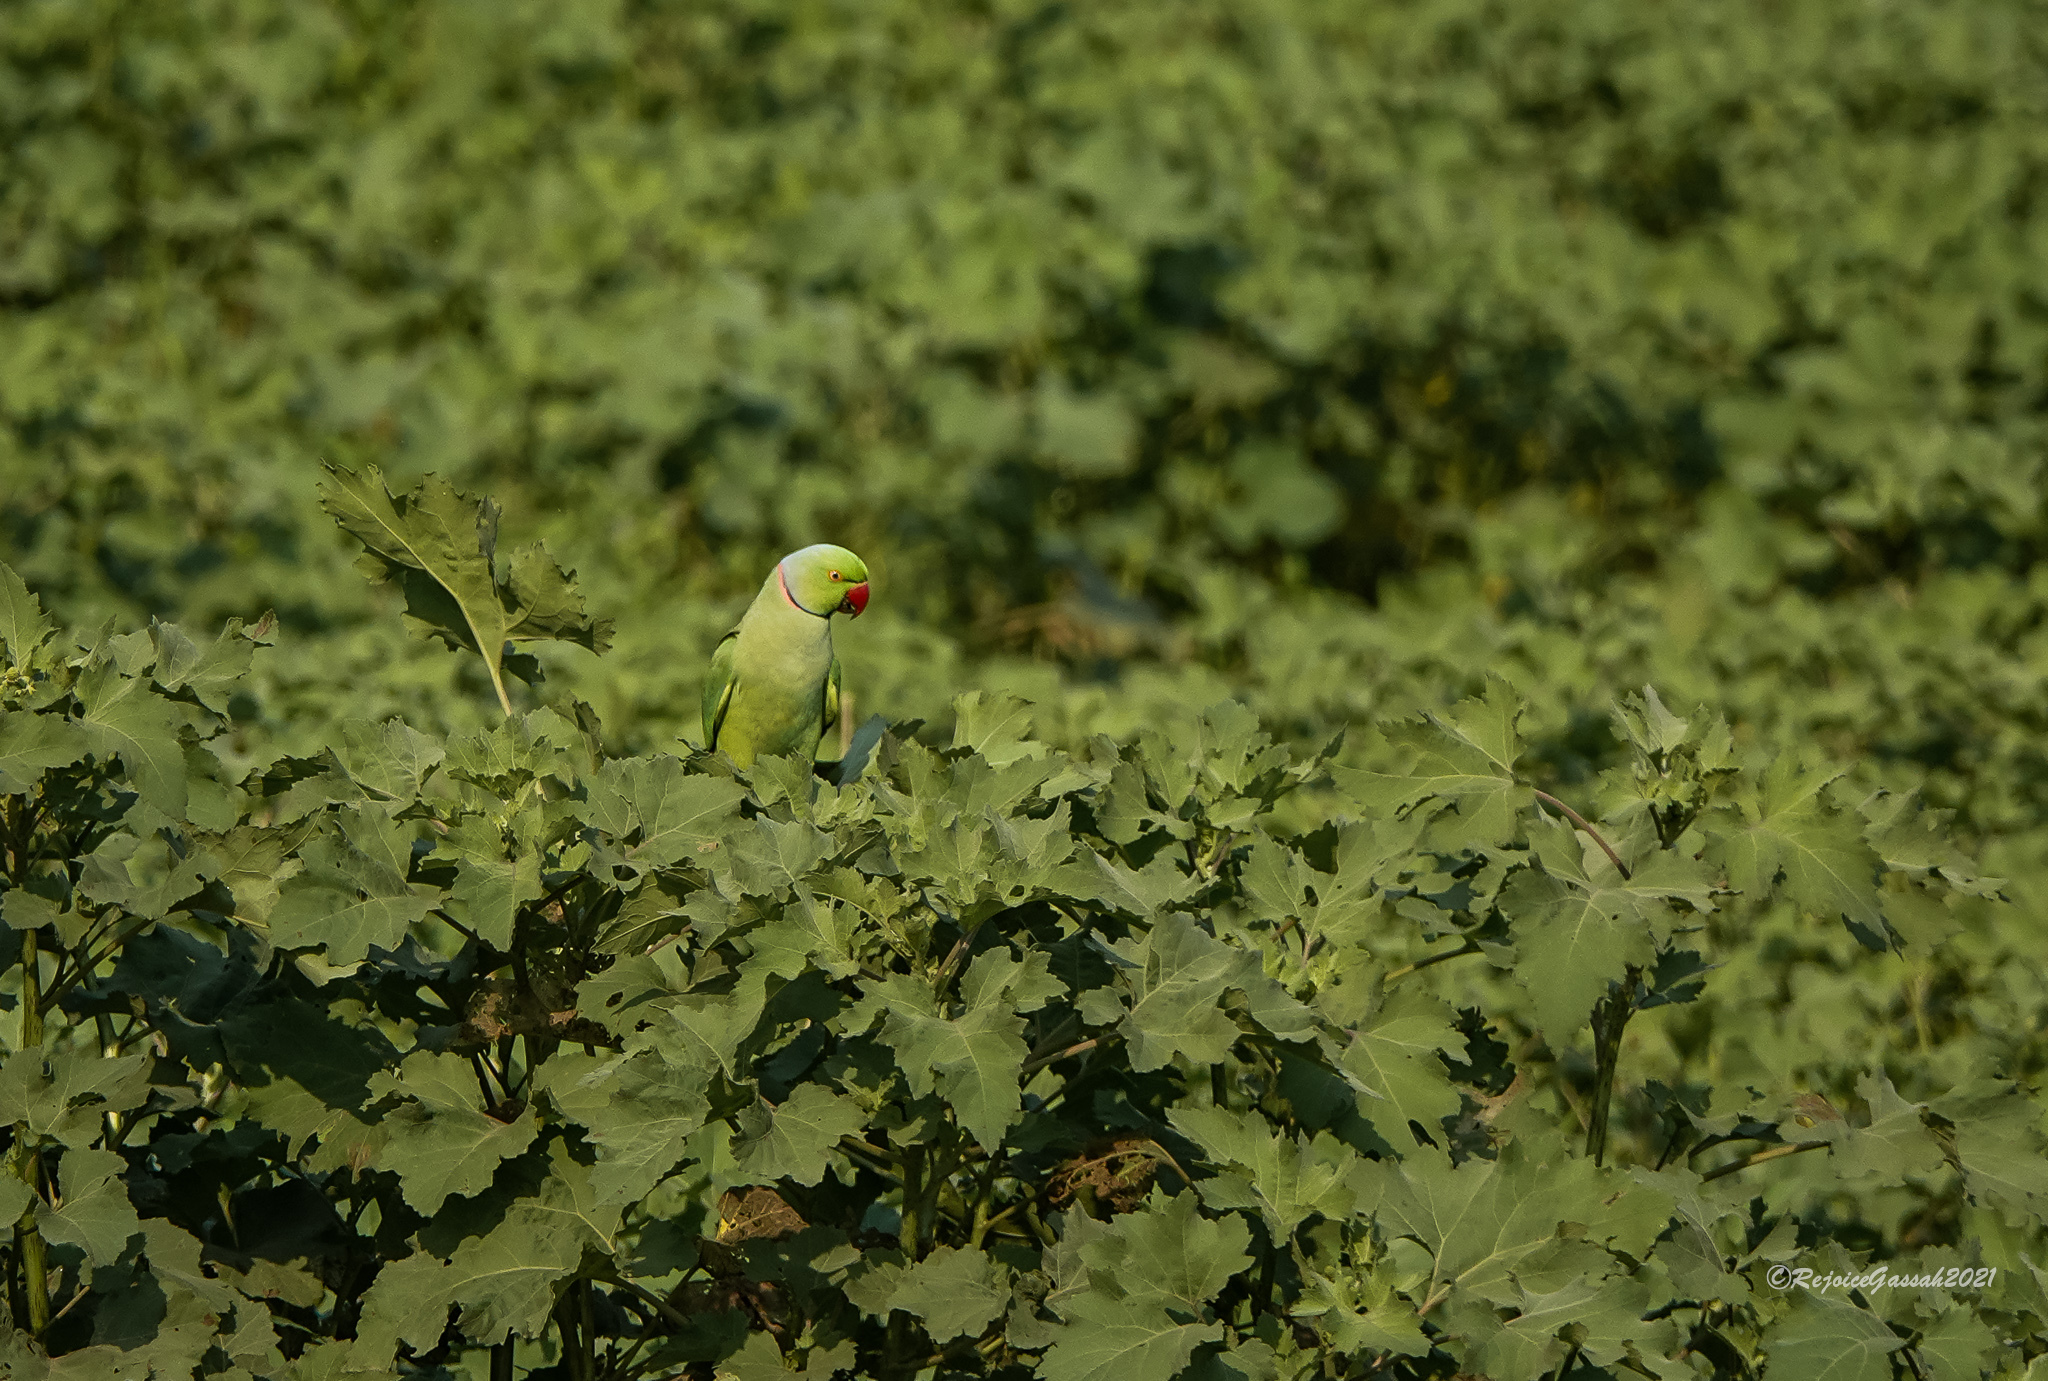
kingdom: Animalia
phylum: Chordata
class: Aves
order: Psittaciformes
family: Psittacidae
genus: Psittacula
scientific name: Psittacula krameri
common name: Rose-ringed parakeet
